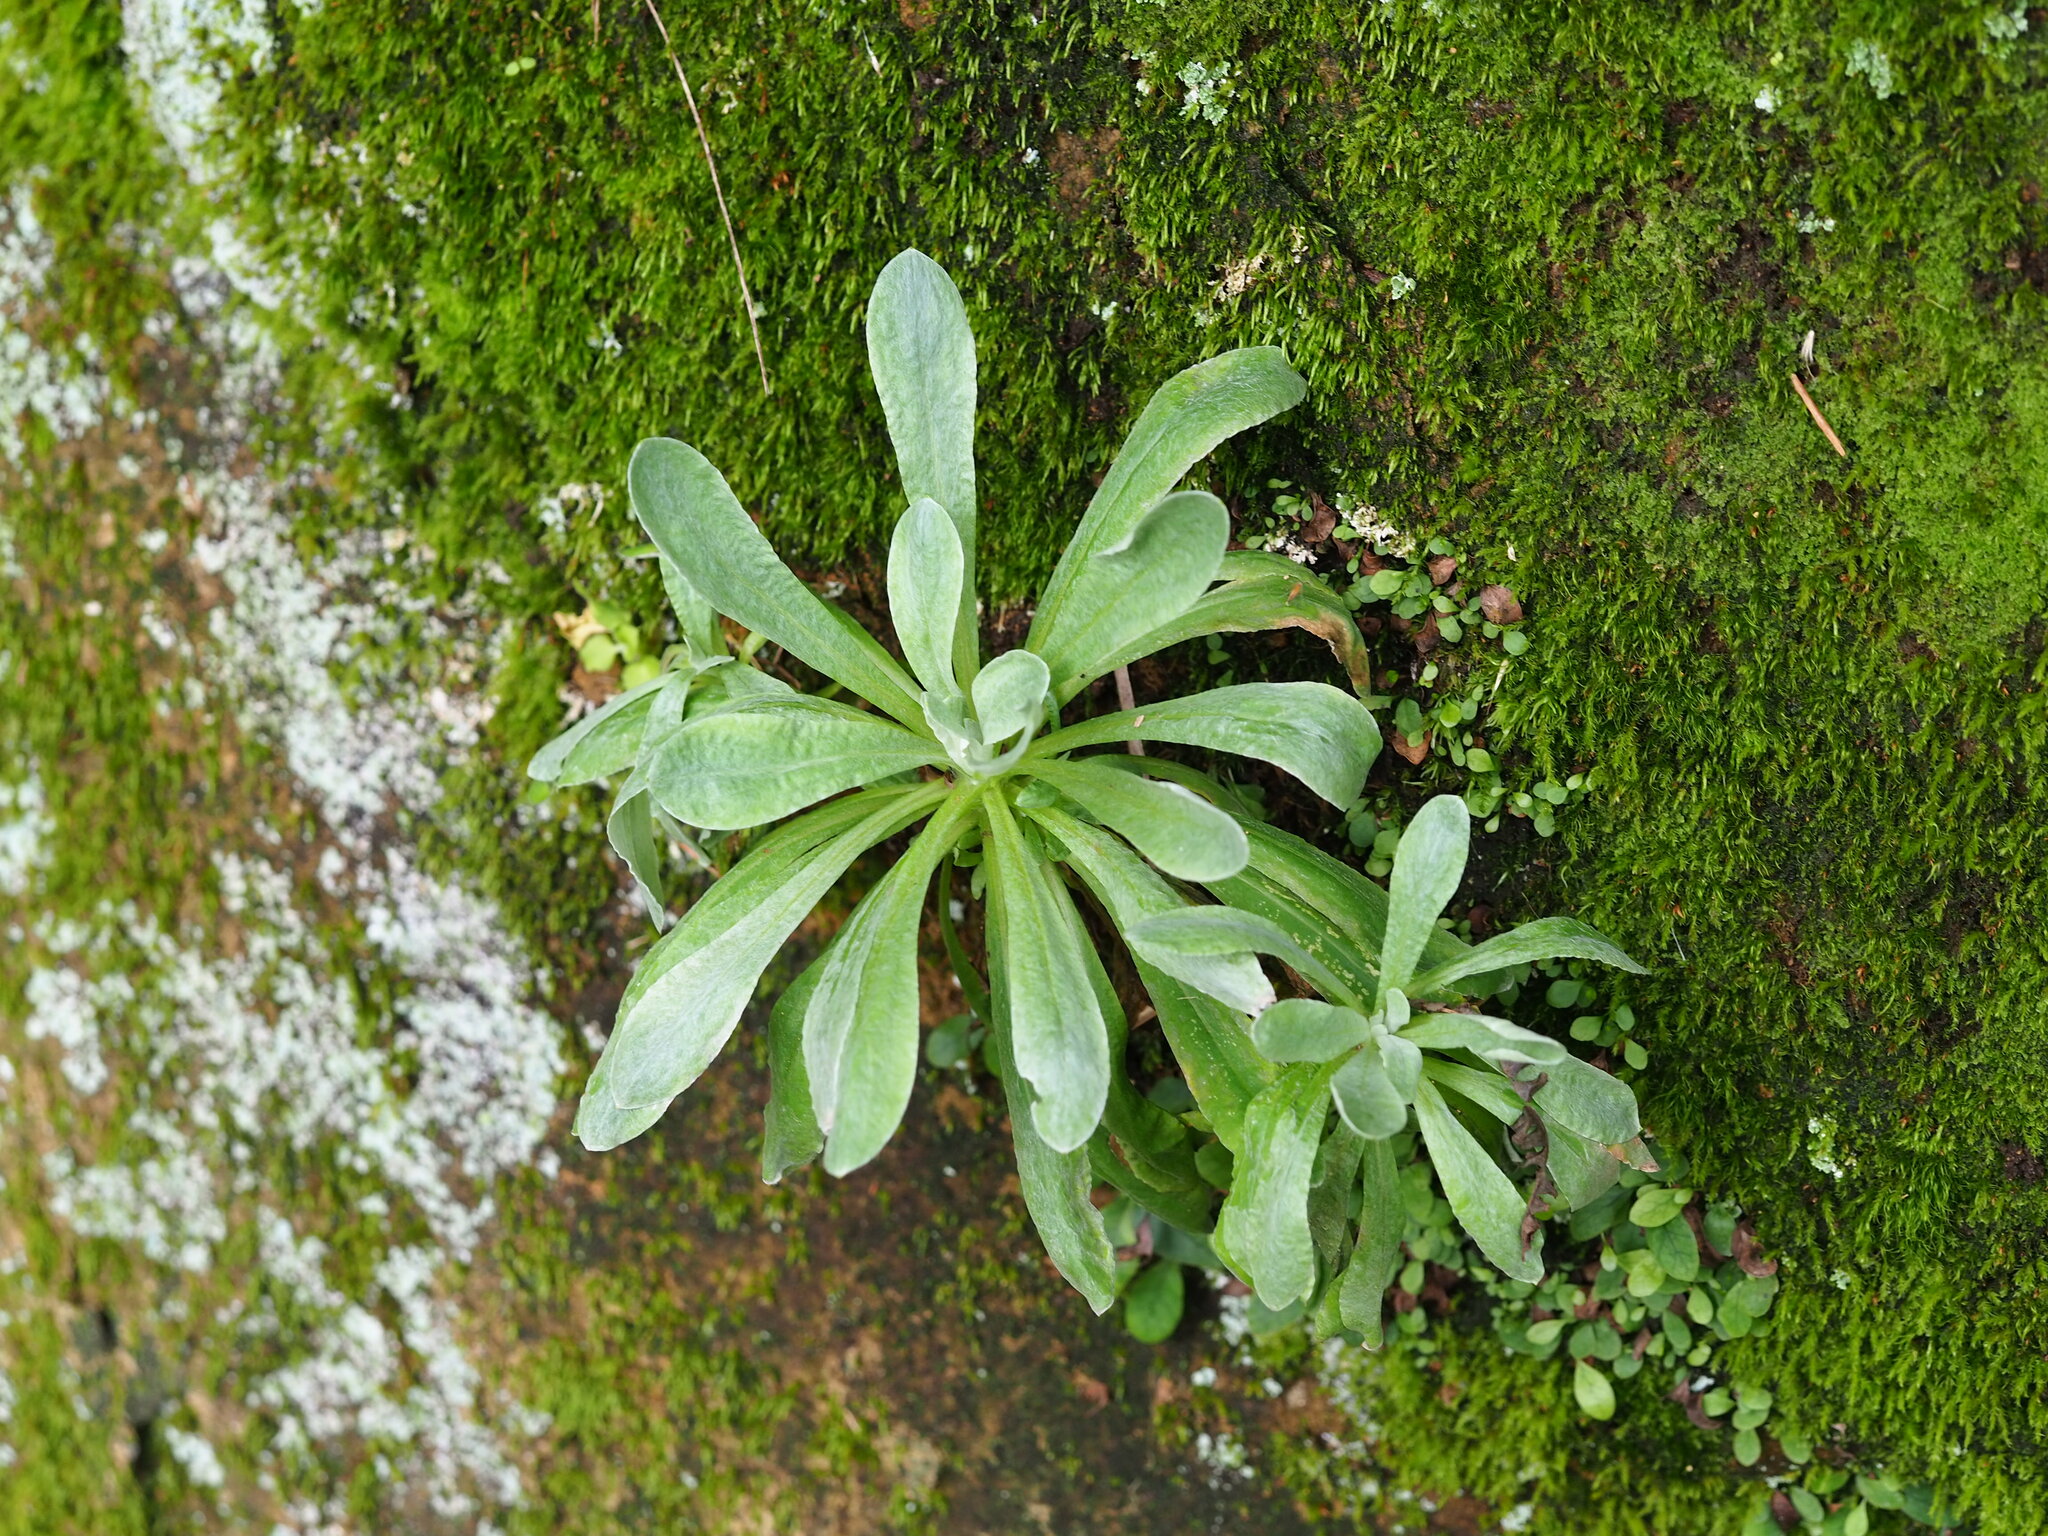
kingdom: Plantae
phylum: Tracheophyta
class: Magnoliopsida
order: Asterales
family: Asteraceae
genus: Pseudognaphalium
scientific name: Pseudognaphalium affine
